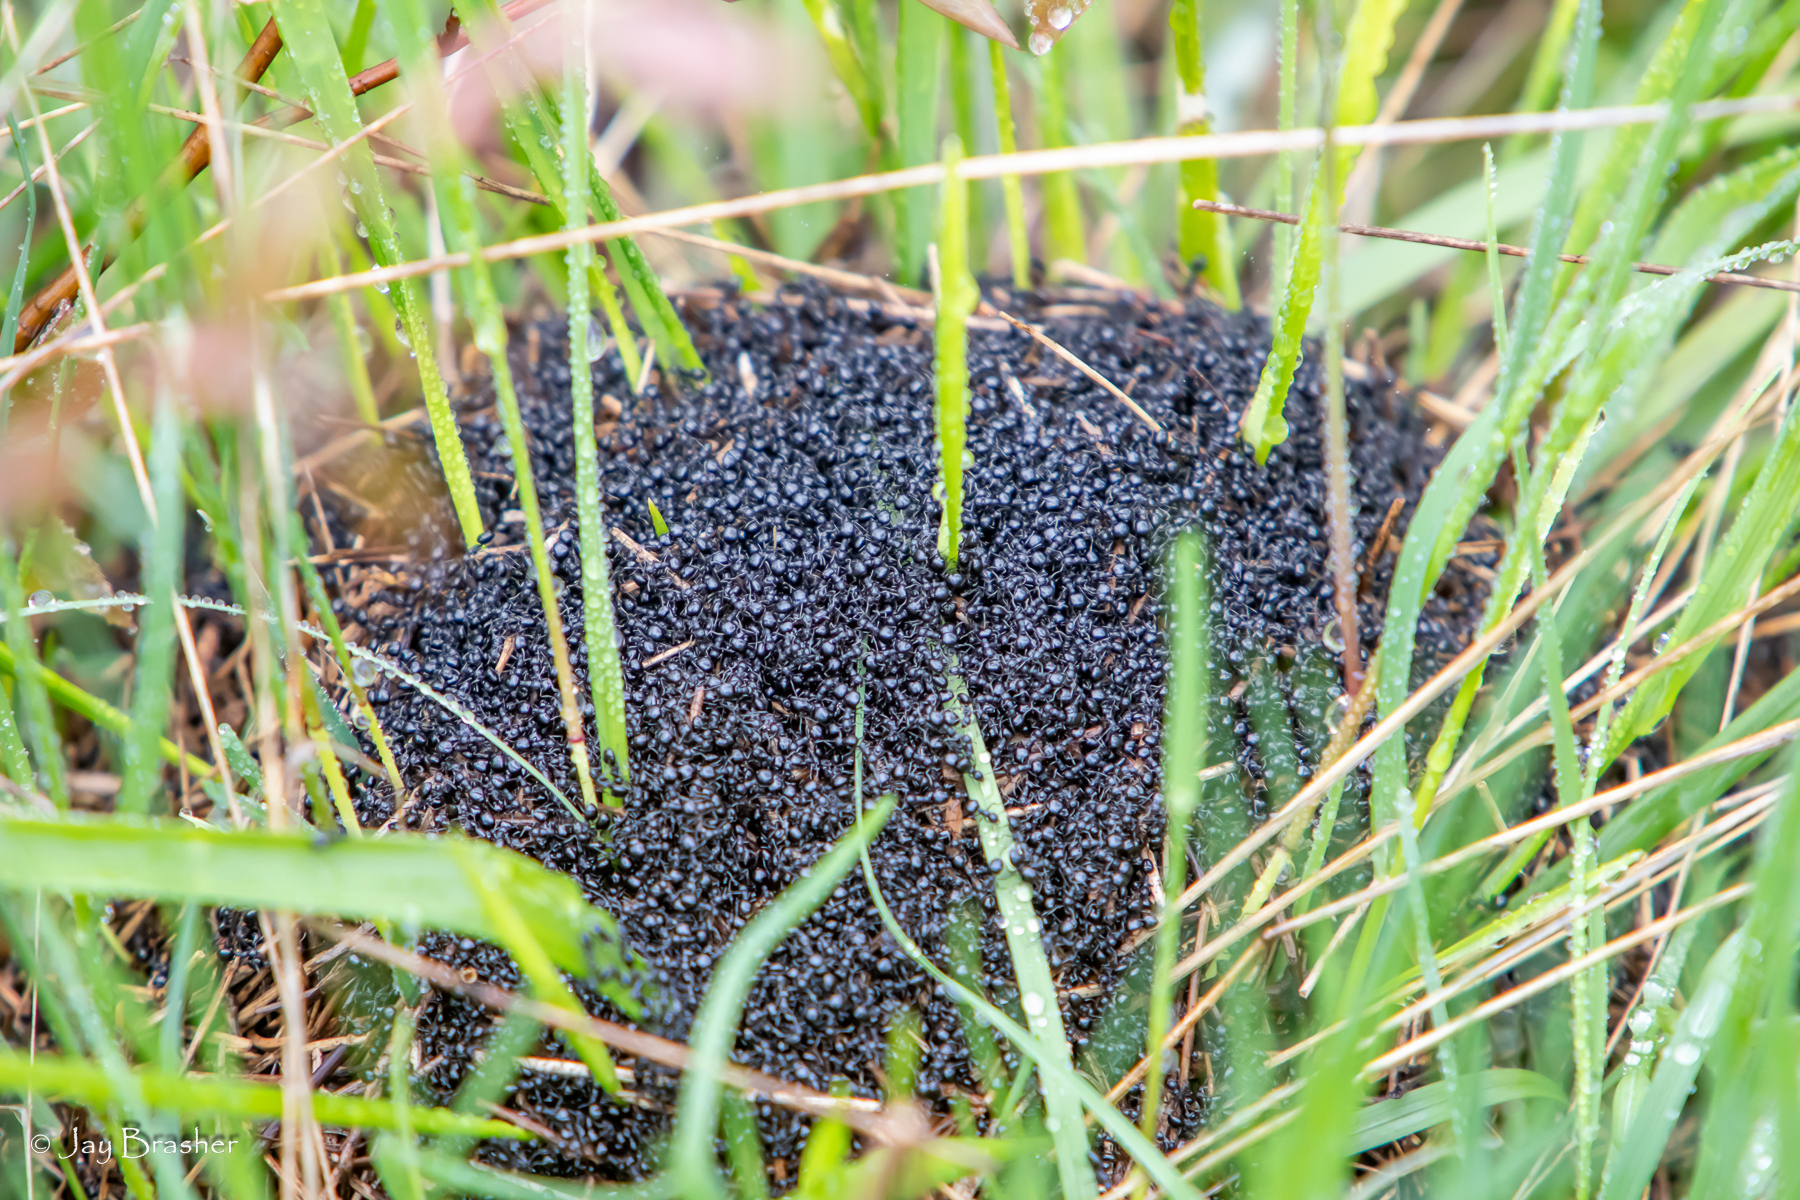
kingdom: Animalia
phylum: Arthropoda
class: Insecta
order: Hymenoptera
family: Formicidae
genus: Dolichoderus
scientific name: Dolichoderus taschenbergi
